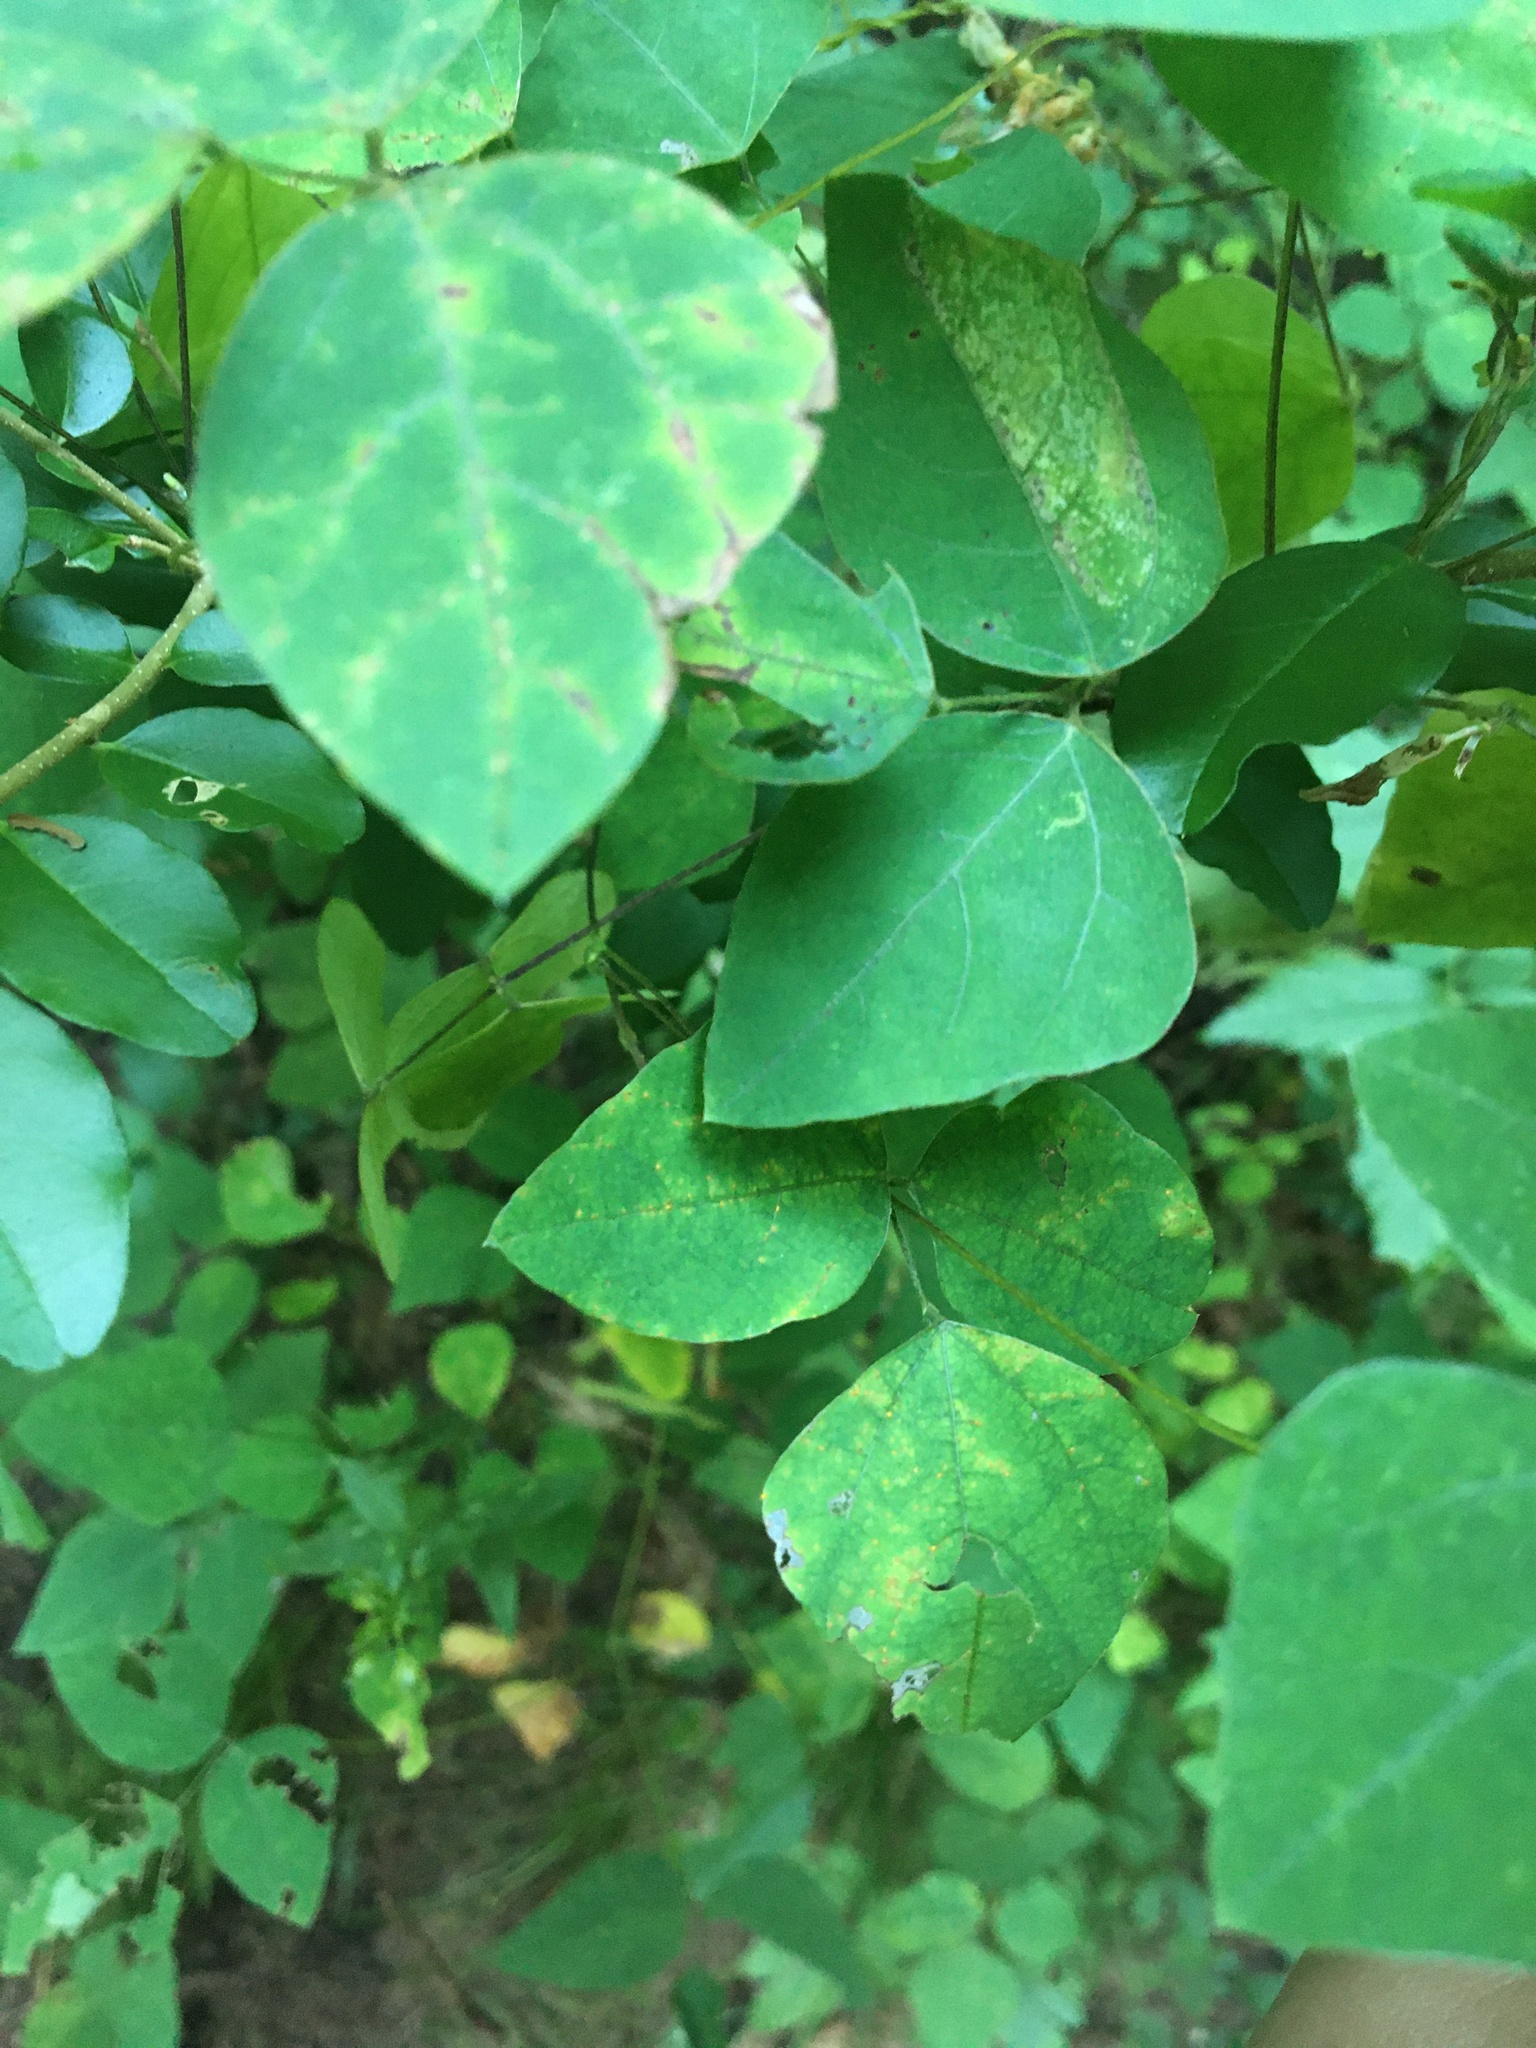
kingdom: Plantae
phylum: Tracheophyta
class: Magnoliopsida
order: Fabales
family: Fabaceae
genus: Amphicarpaea
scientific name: Amphicarpaea bracteata
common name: American hog peanut
